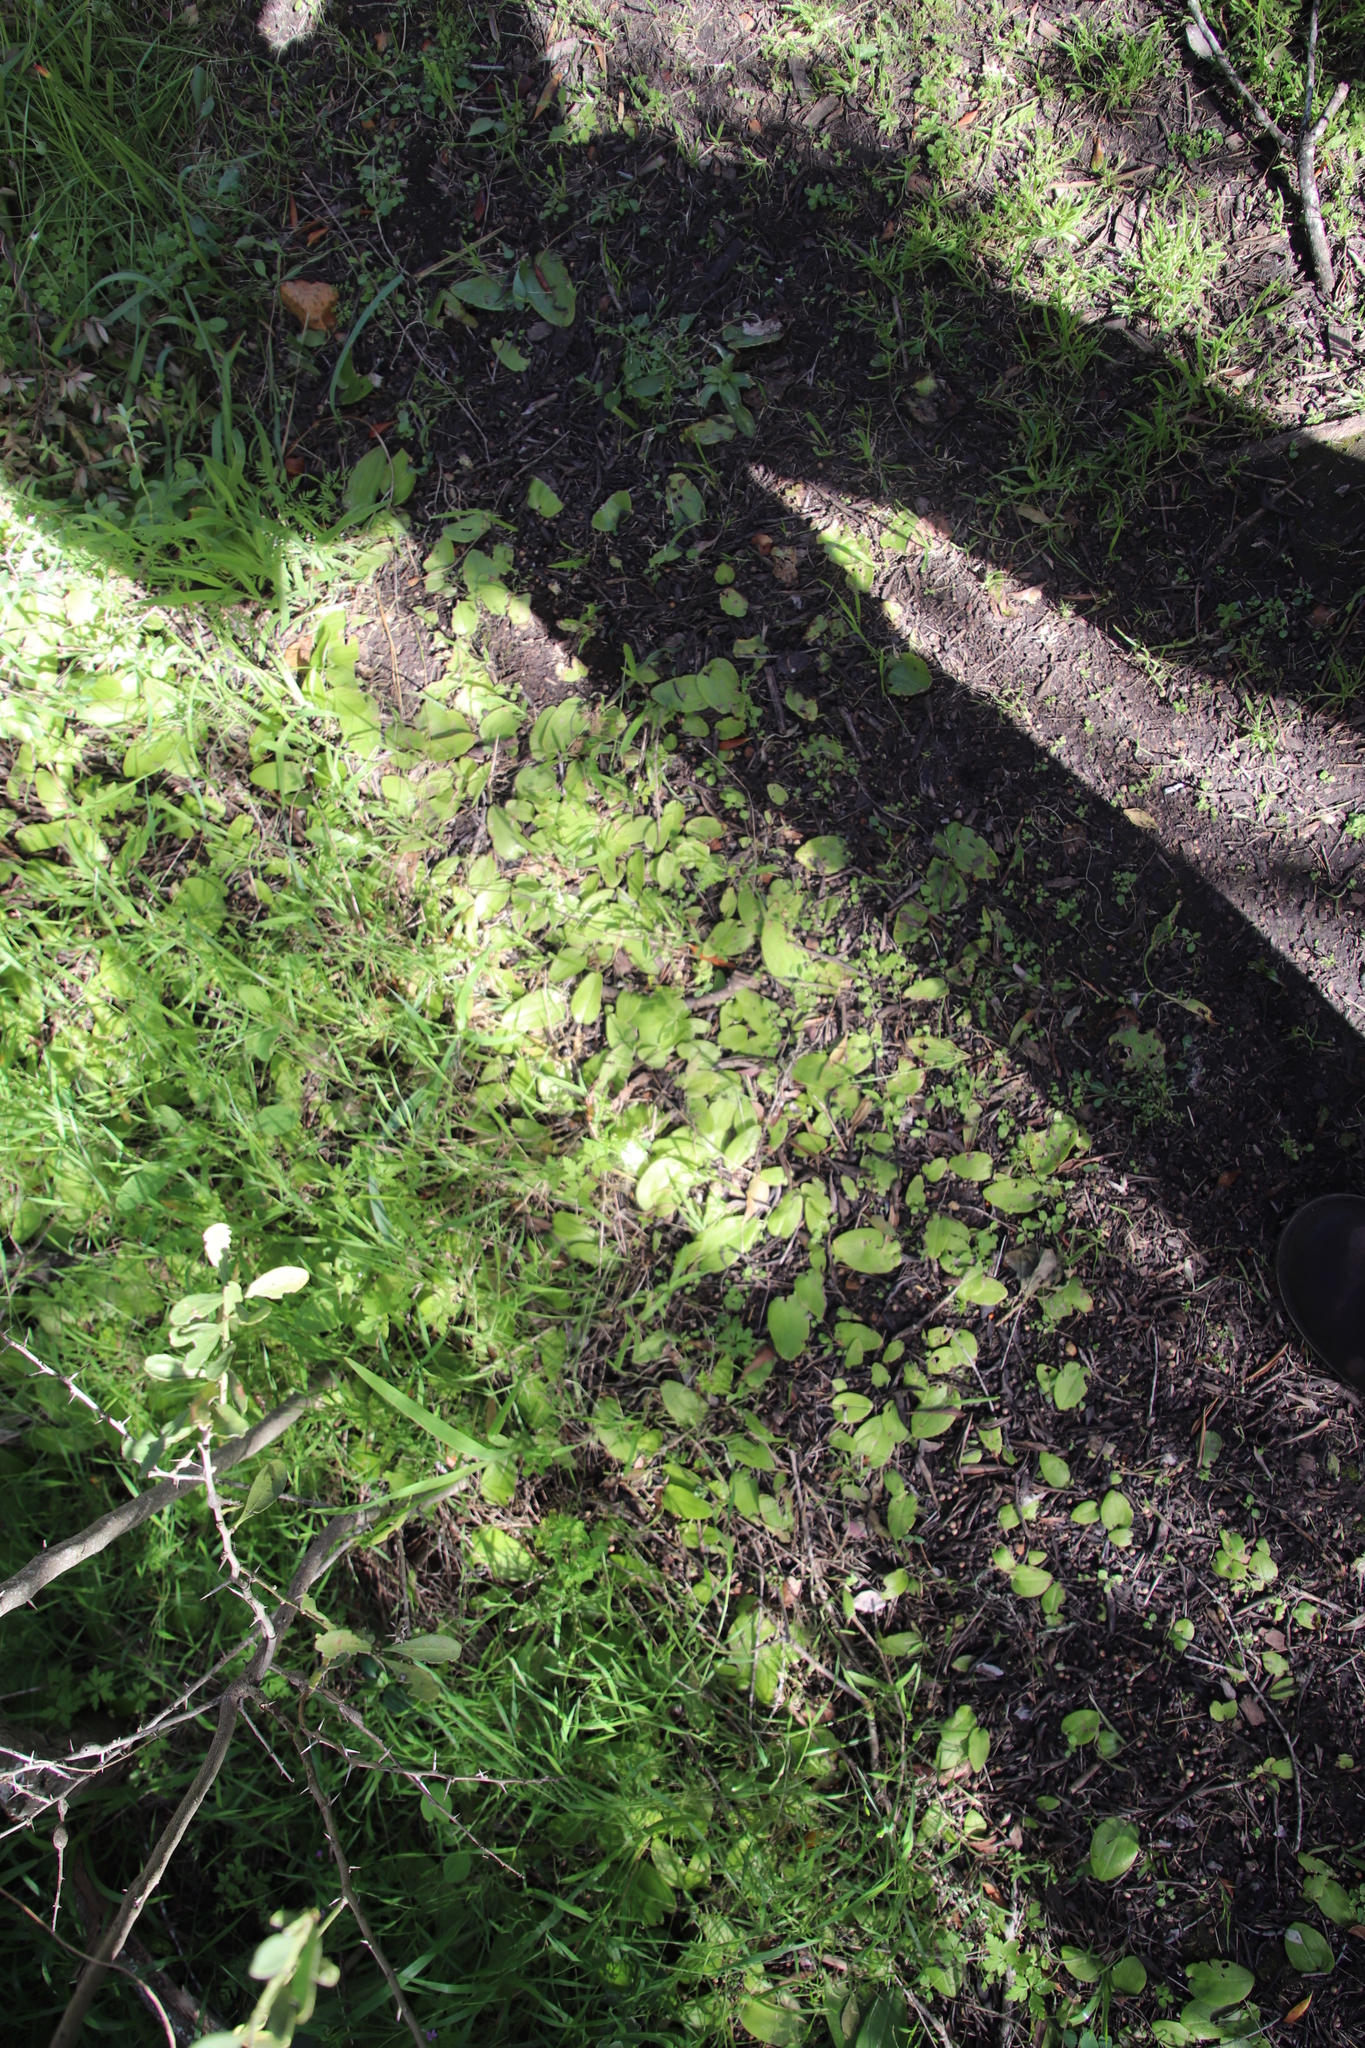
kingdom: Plantae
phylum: Tracheophyta
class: Magnoliopsida
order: Geraniales
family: Geraniaceae
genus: Geranium
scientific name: Geranium purpureum
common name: Little-robin
